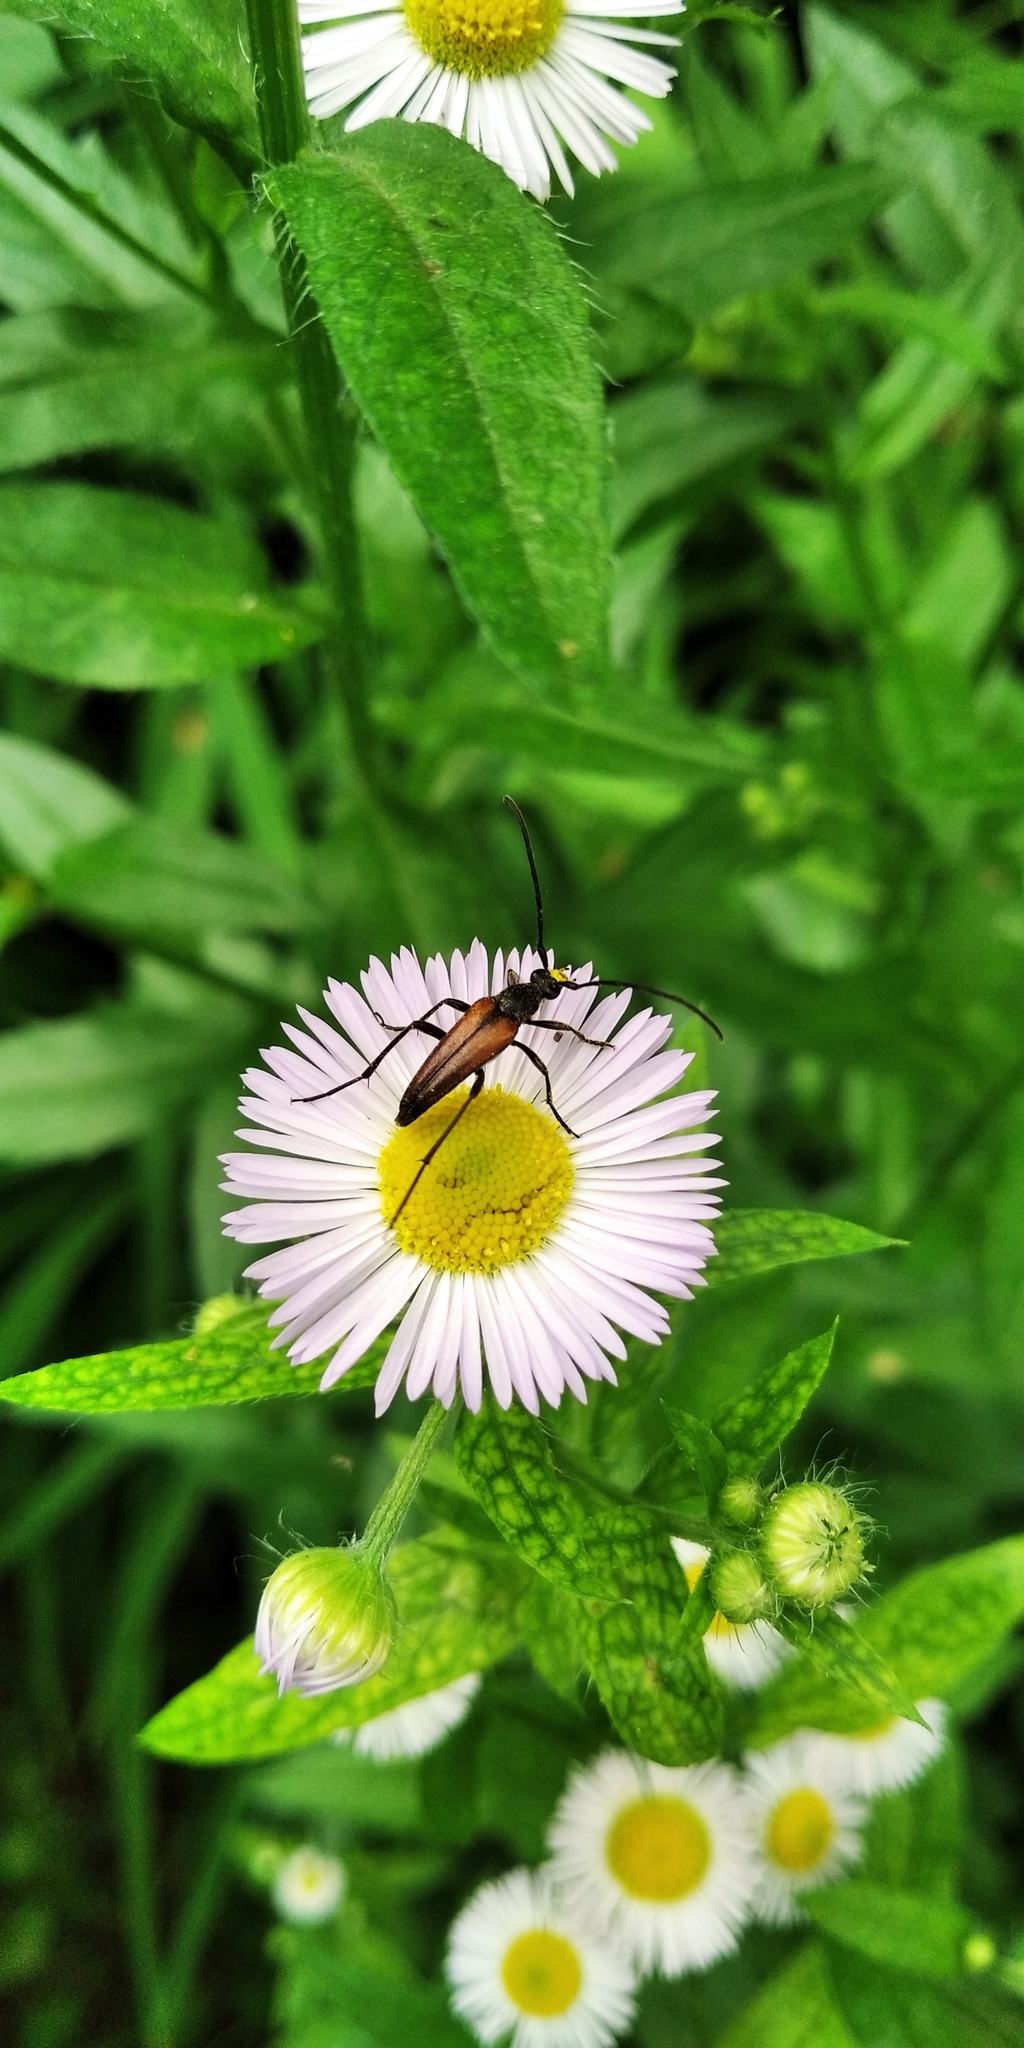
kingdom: Animalia
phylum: Arthropoda
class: Insecta
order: Coleoptera
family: Cerambycidae
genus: Stenurella
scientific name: Stenurella melanura
